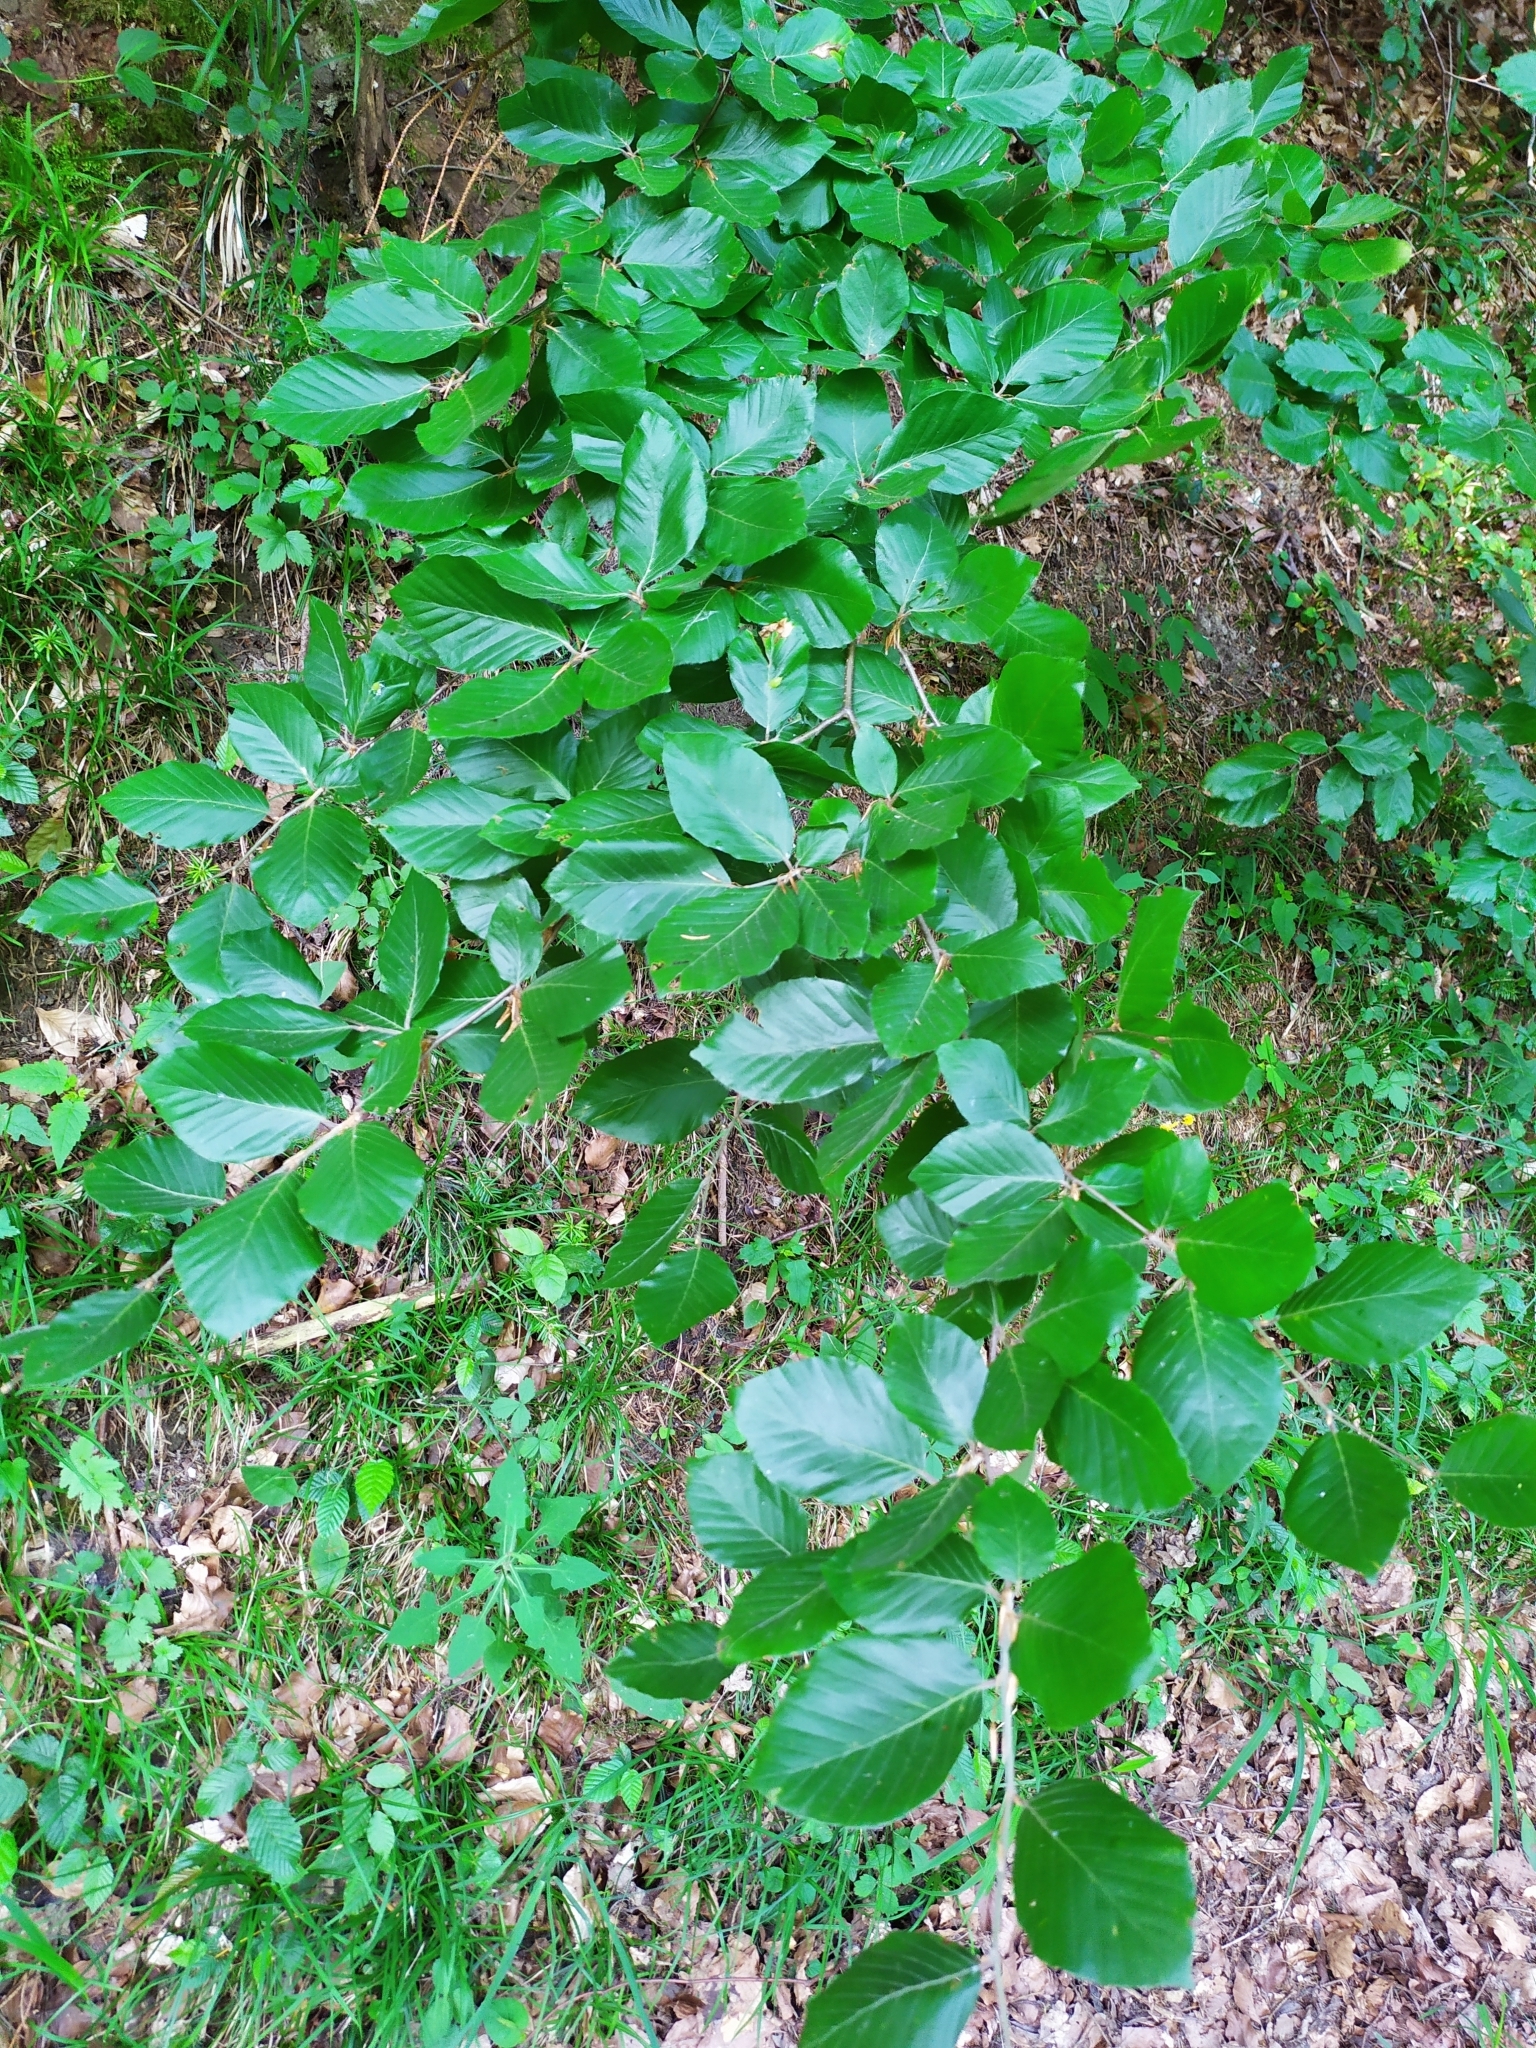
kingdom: Plantae
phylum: Tracheophyta
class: Magnoliopsida
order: Fagales
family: Fagaceae
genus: Fagus
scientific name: Fagus sylvatica
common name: Beech
